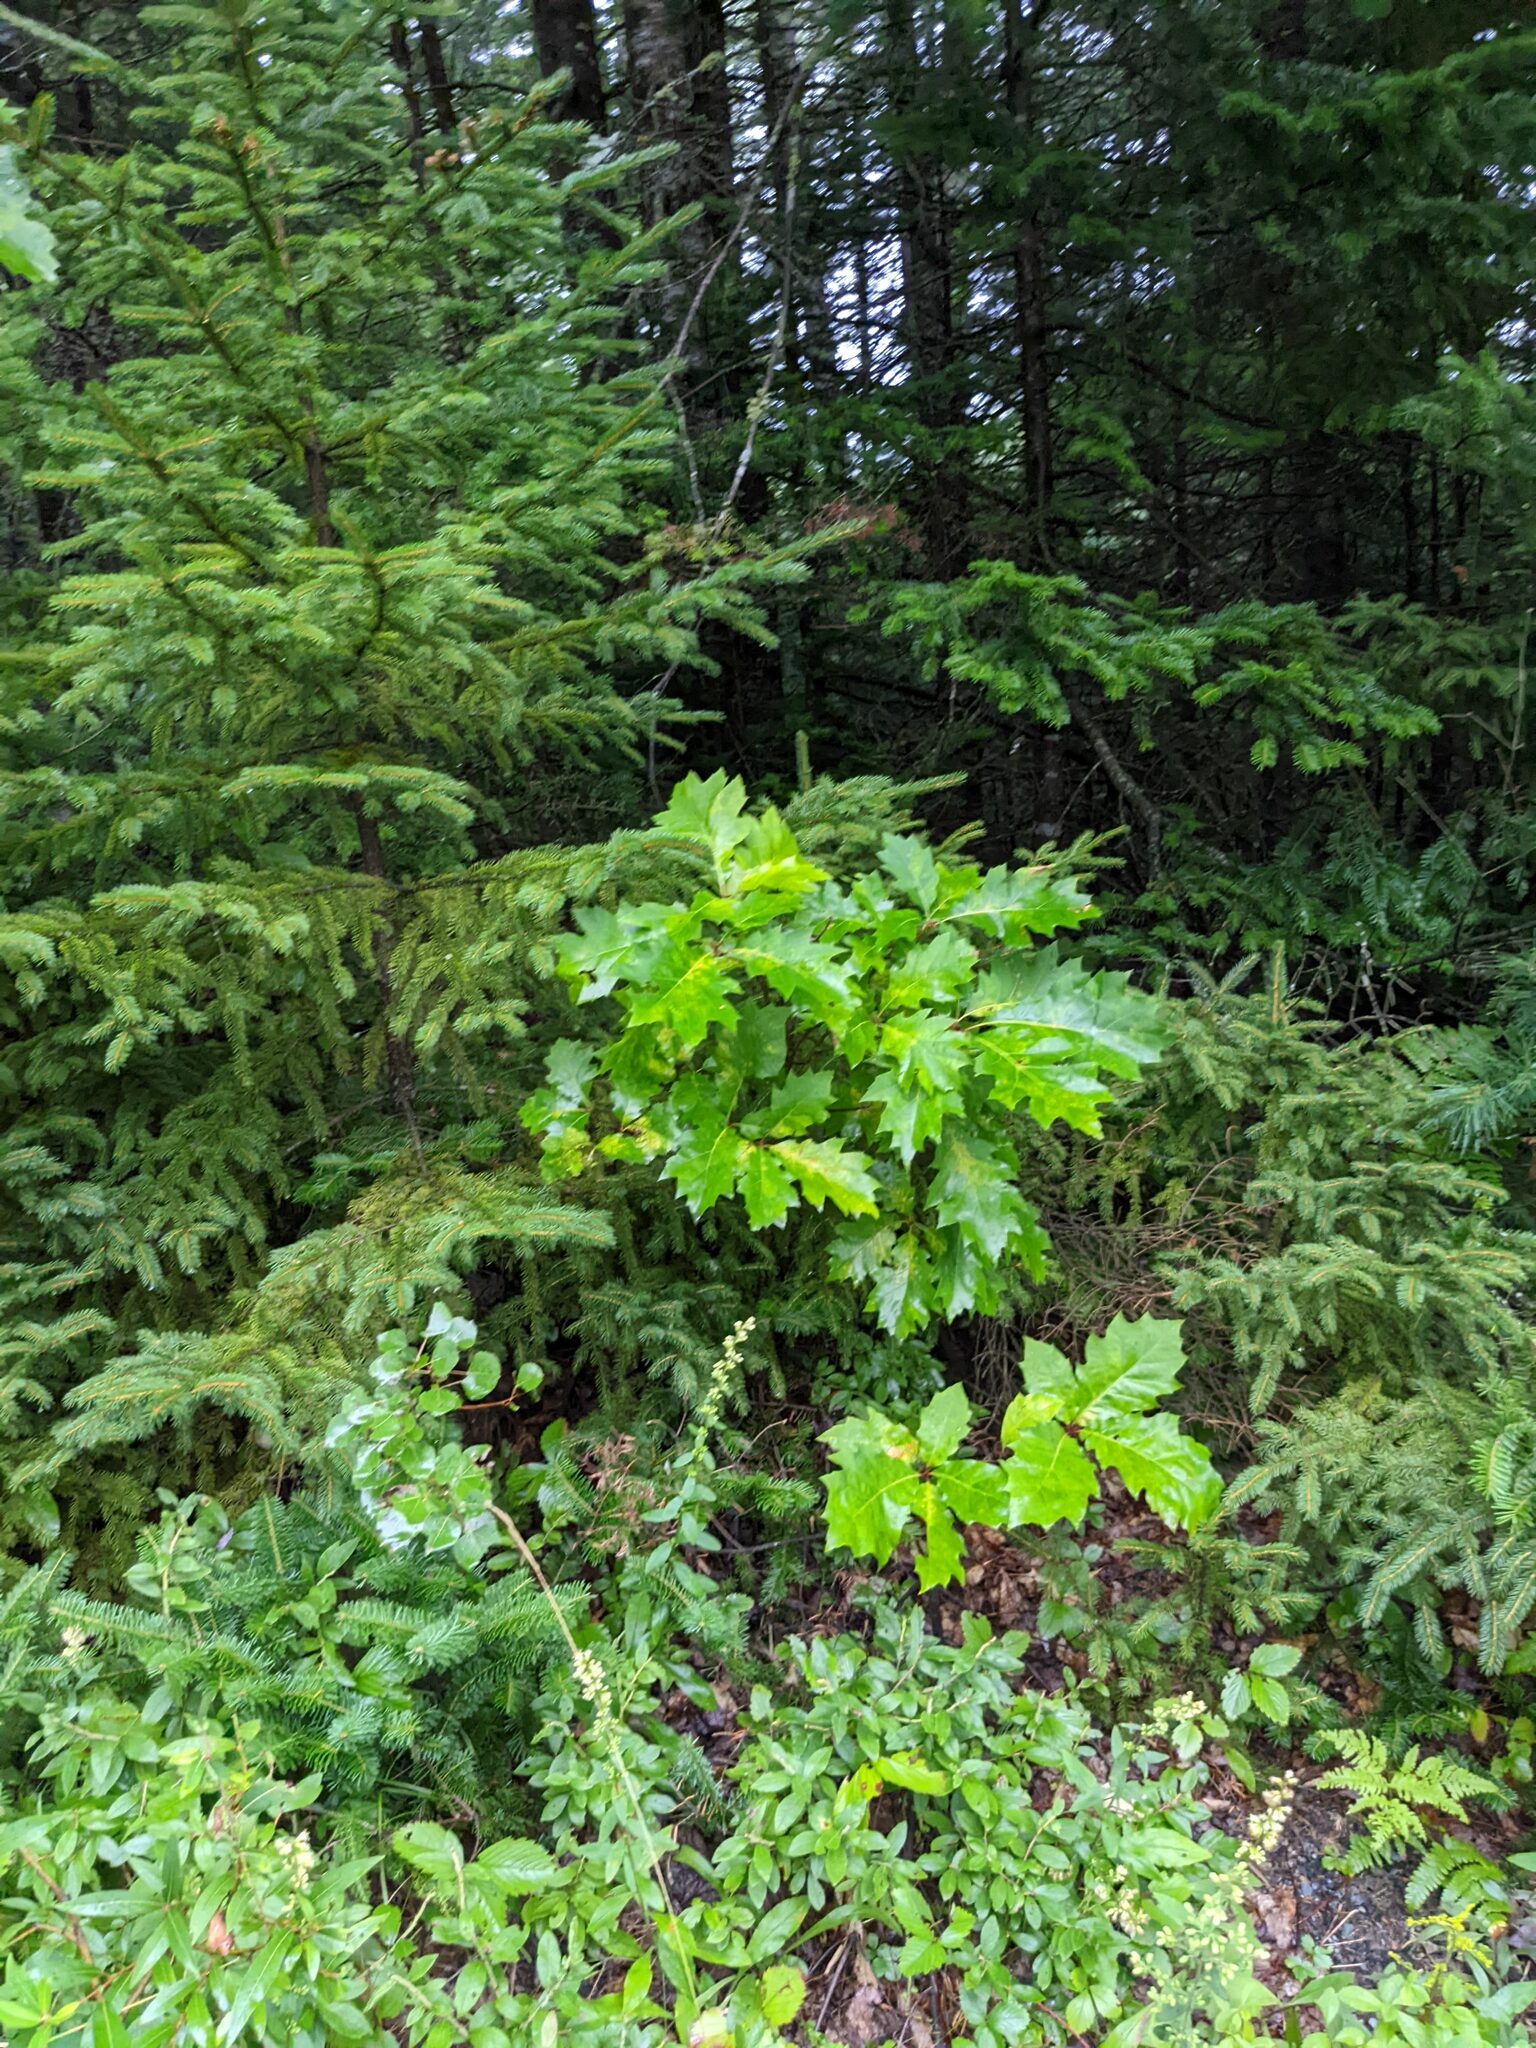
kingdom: Plantae
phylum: Tracheophyta
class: Magnoliopsida
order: Fagales
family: Fagaceae
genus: Quercus
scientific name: Quercus rubra
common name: Red oak
